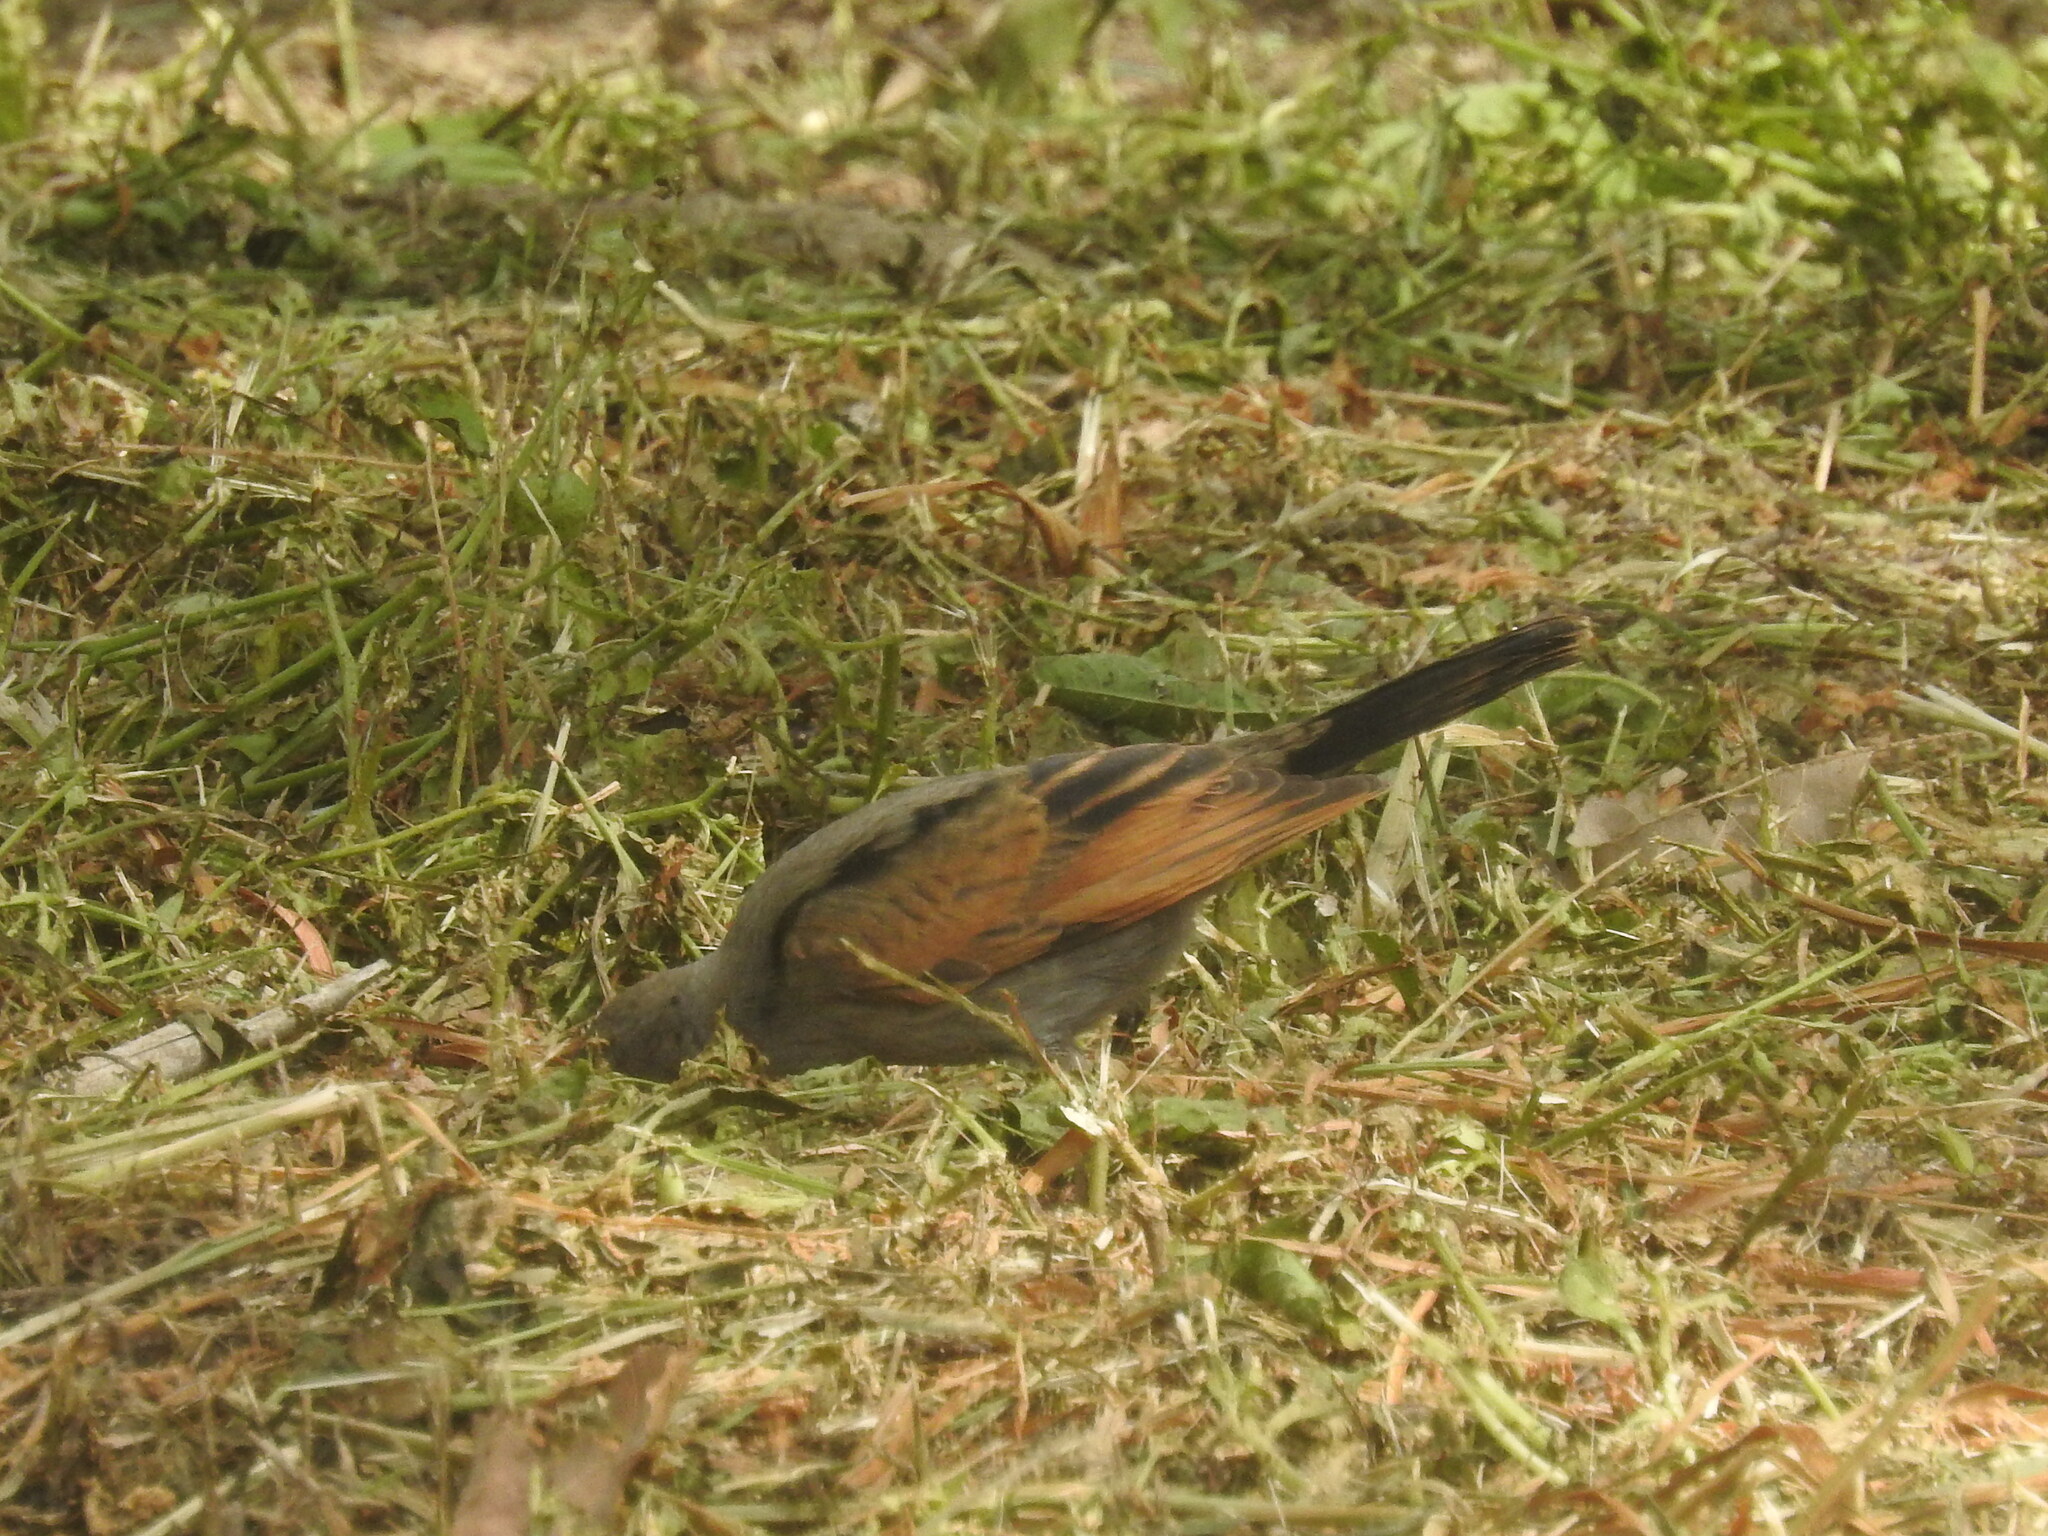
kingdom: Animalia
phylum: Chordata
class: Aves
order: Passeriformes
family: Icteridae
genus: Agelaioides
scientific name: Agelaioides badius
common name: Baywing
